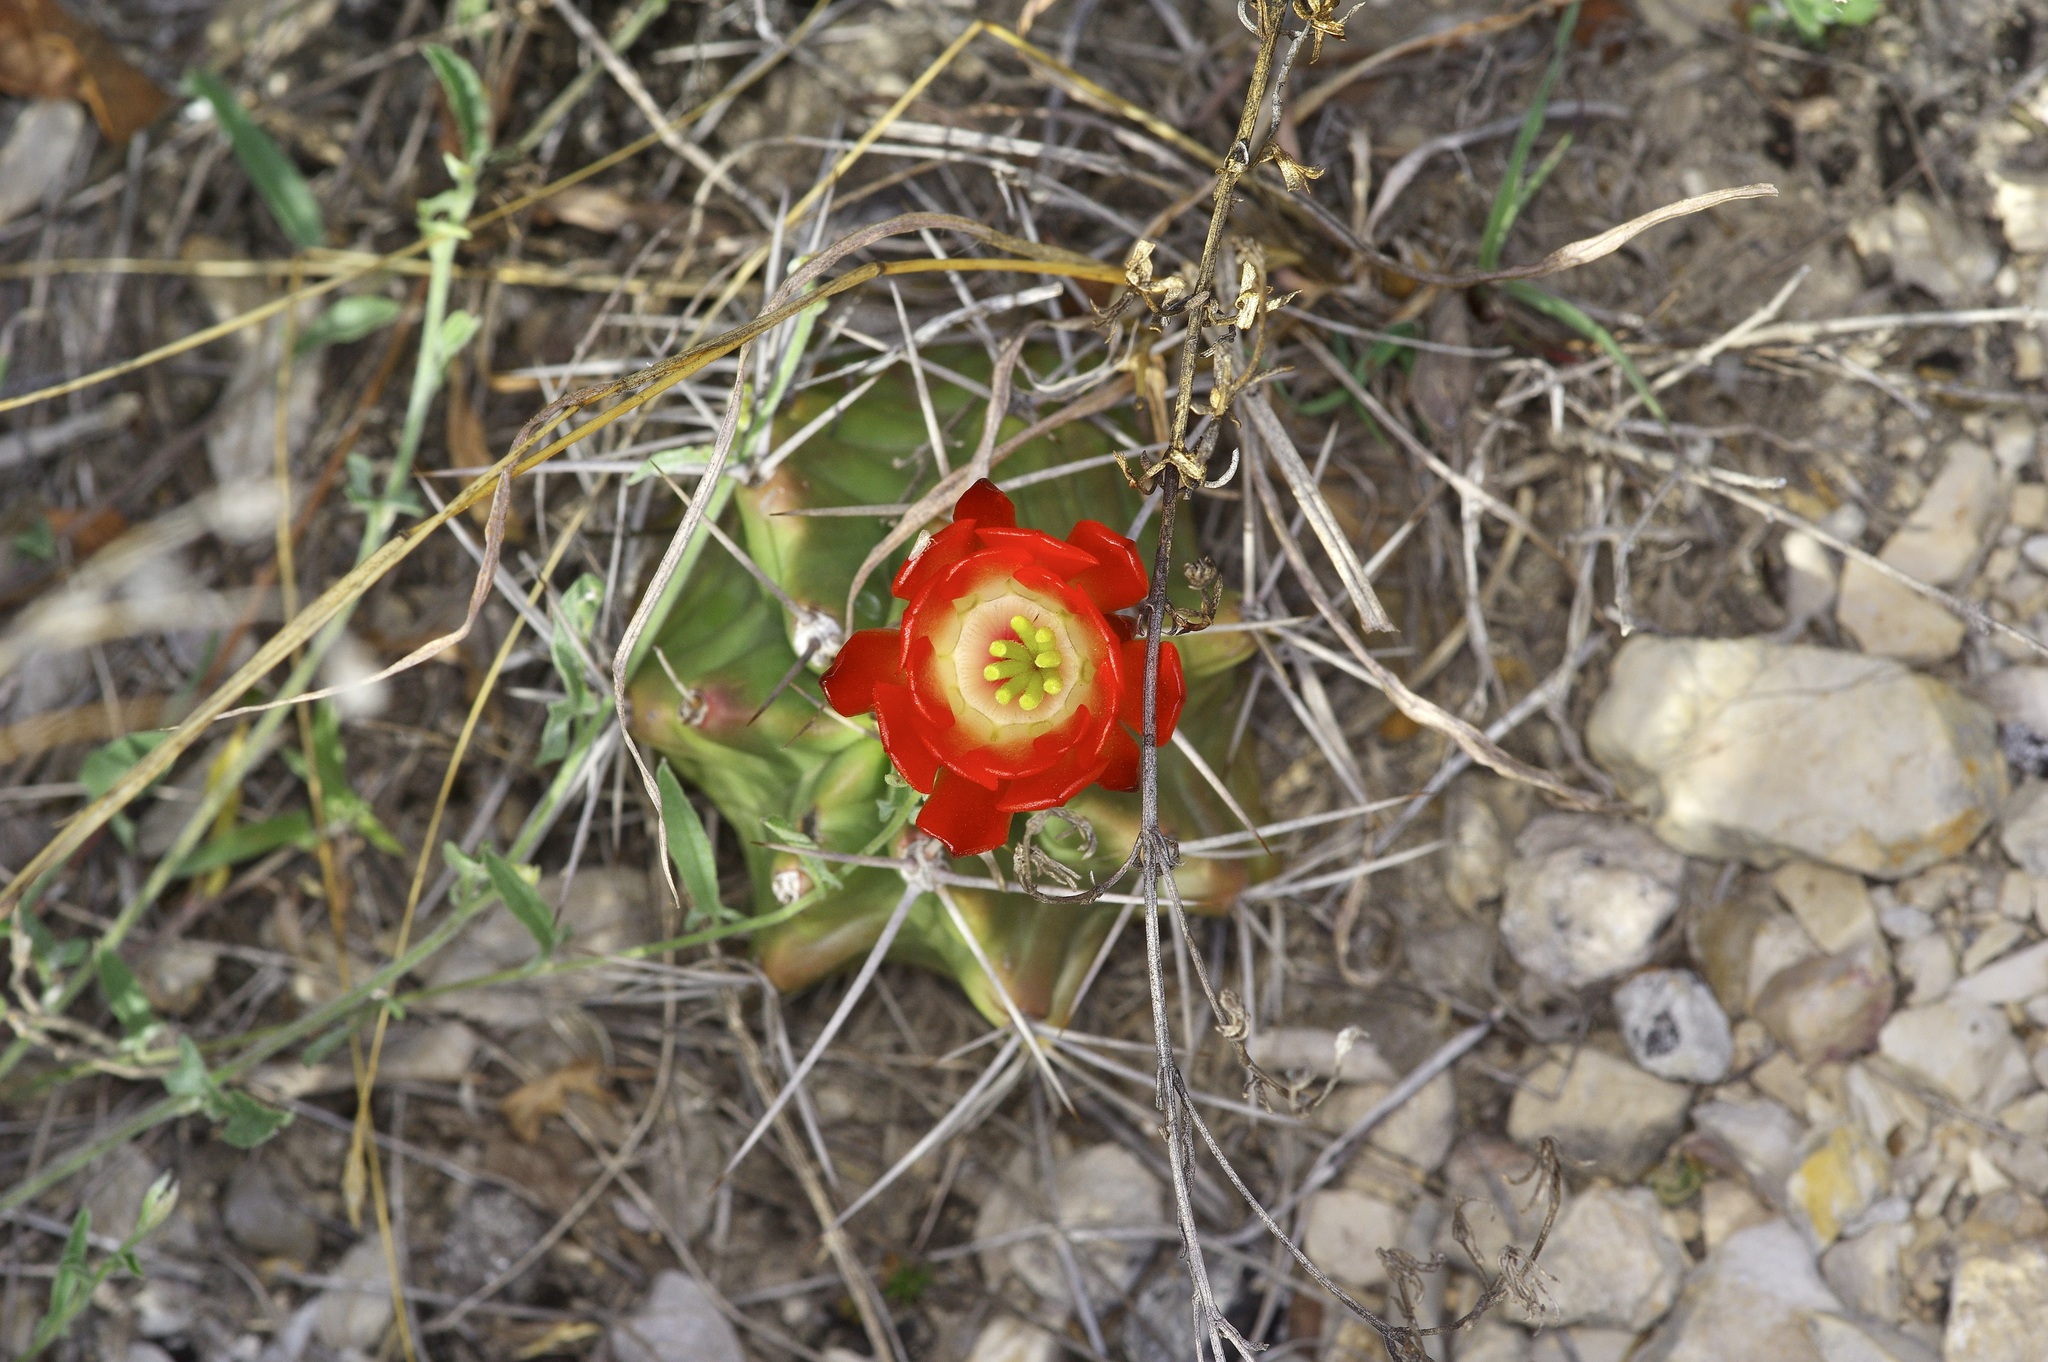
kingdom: Plantae
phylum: Tracheophyta
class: Magnoliopsida
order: Caryophyllales
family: Cactaceae
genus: Echinocereus
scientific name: Echinocereus coccineus
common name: Scarlet hedgehog cactus
